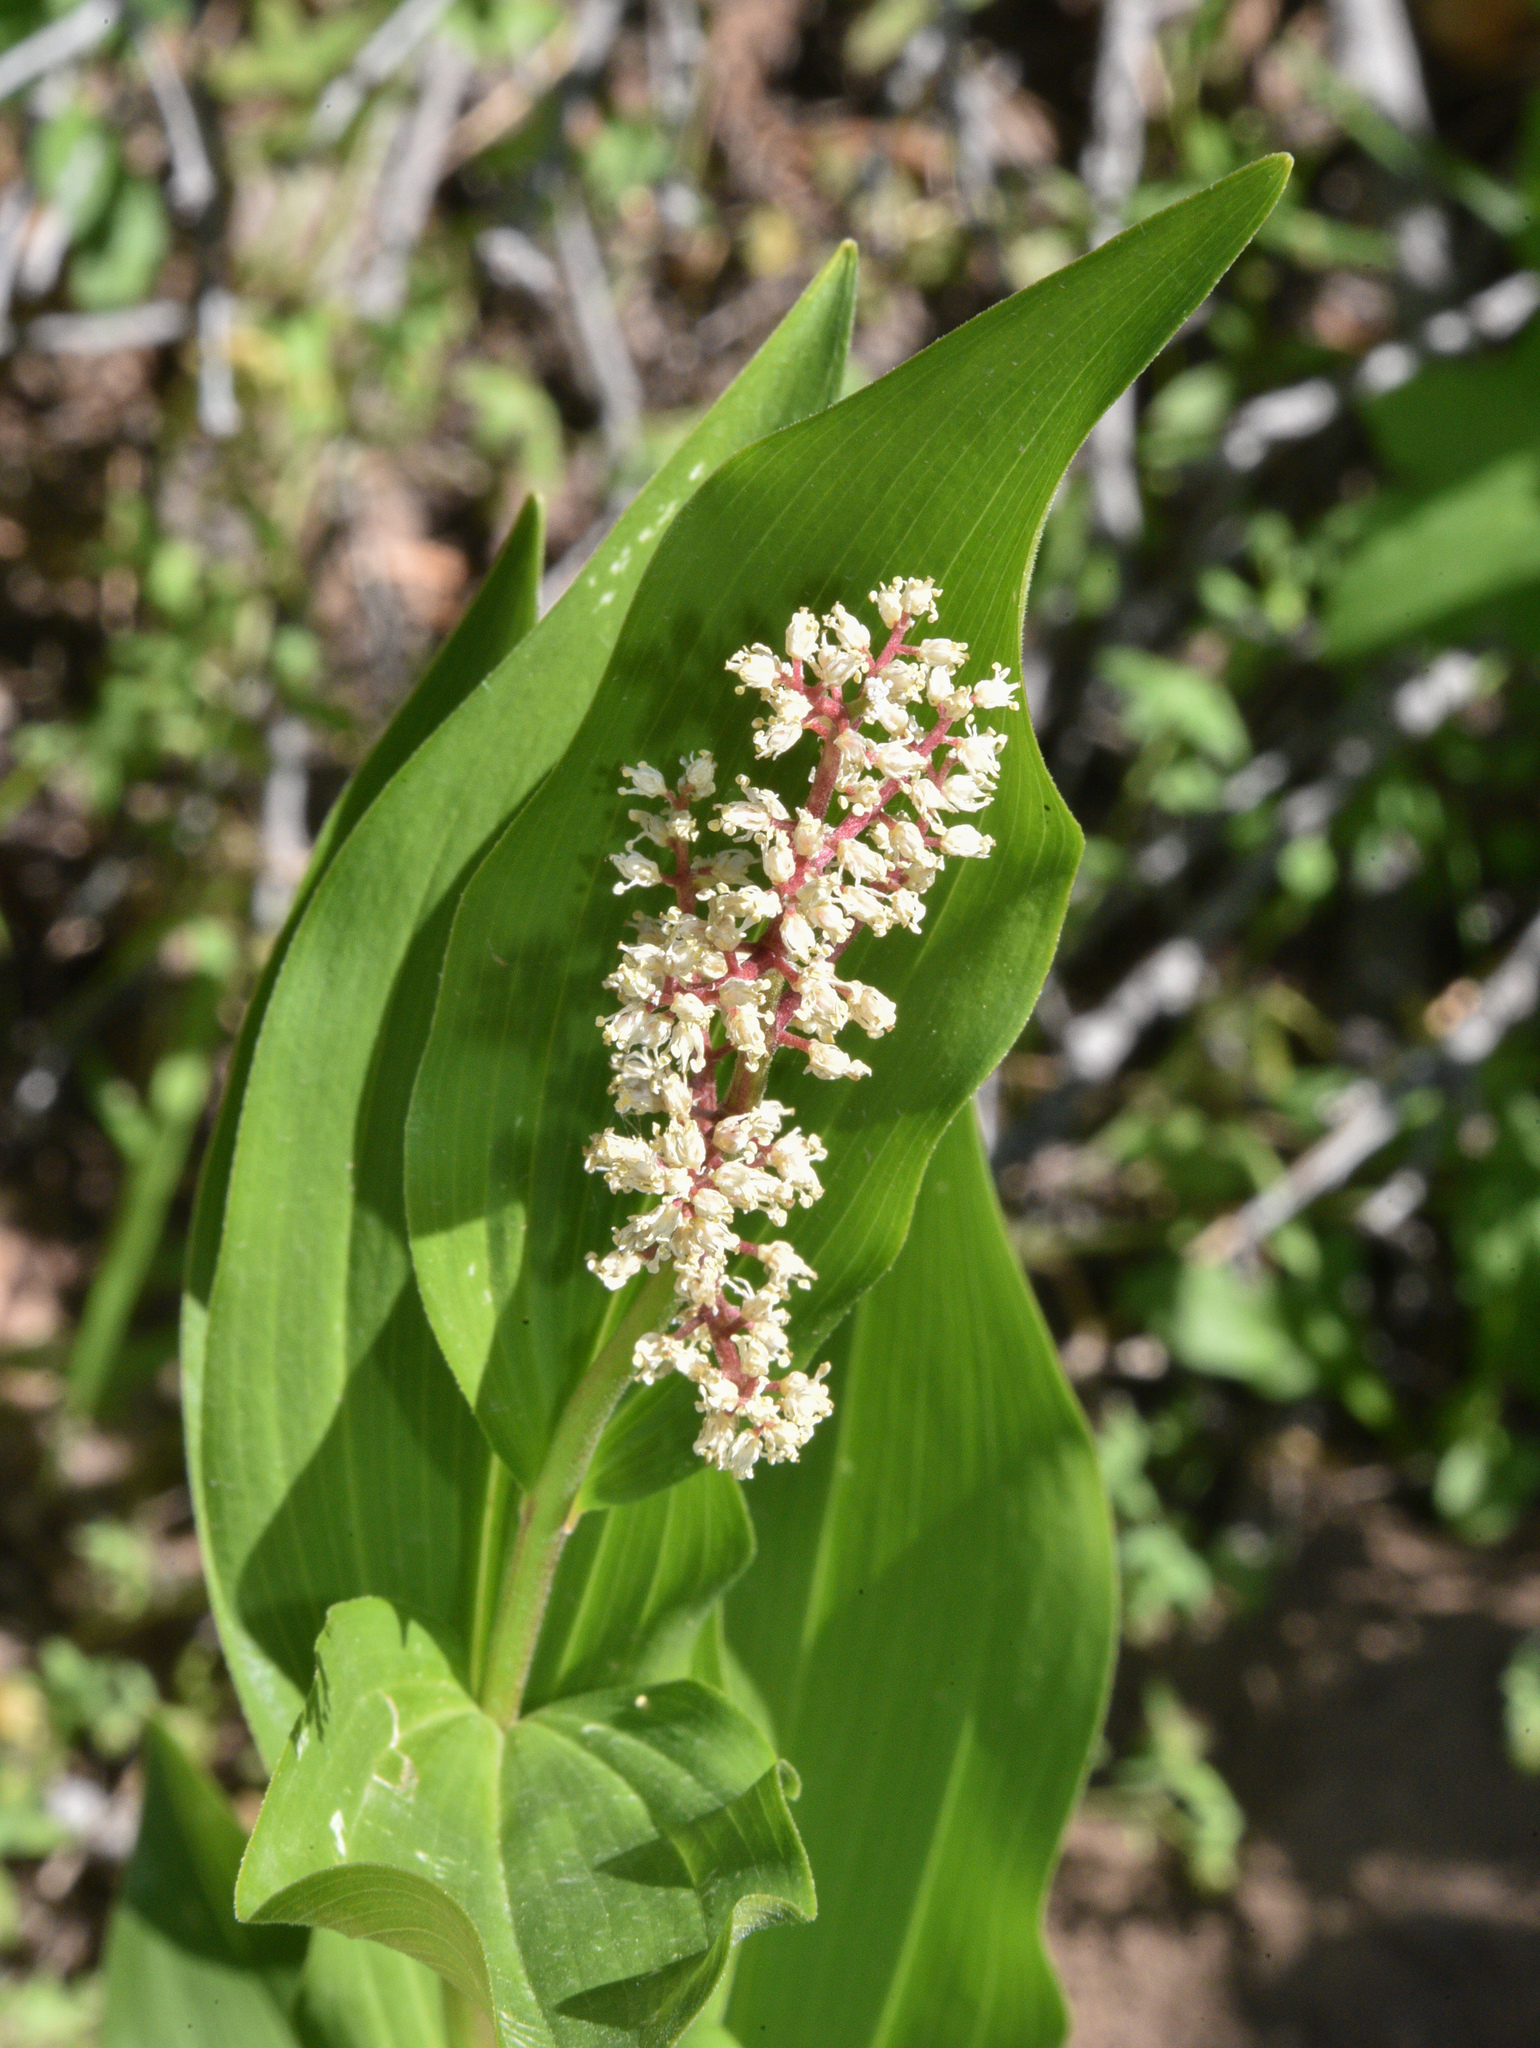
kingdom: Plantae
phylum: Tracheophyta
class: Liliopsida
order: Asparagales
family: Asparagaceae
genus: Maianthemum
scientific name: Maianthemum racemosum
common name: False spikenard
